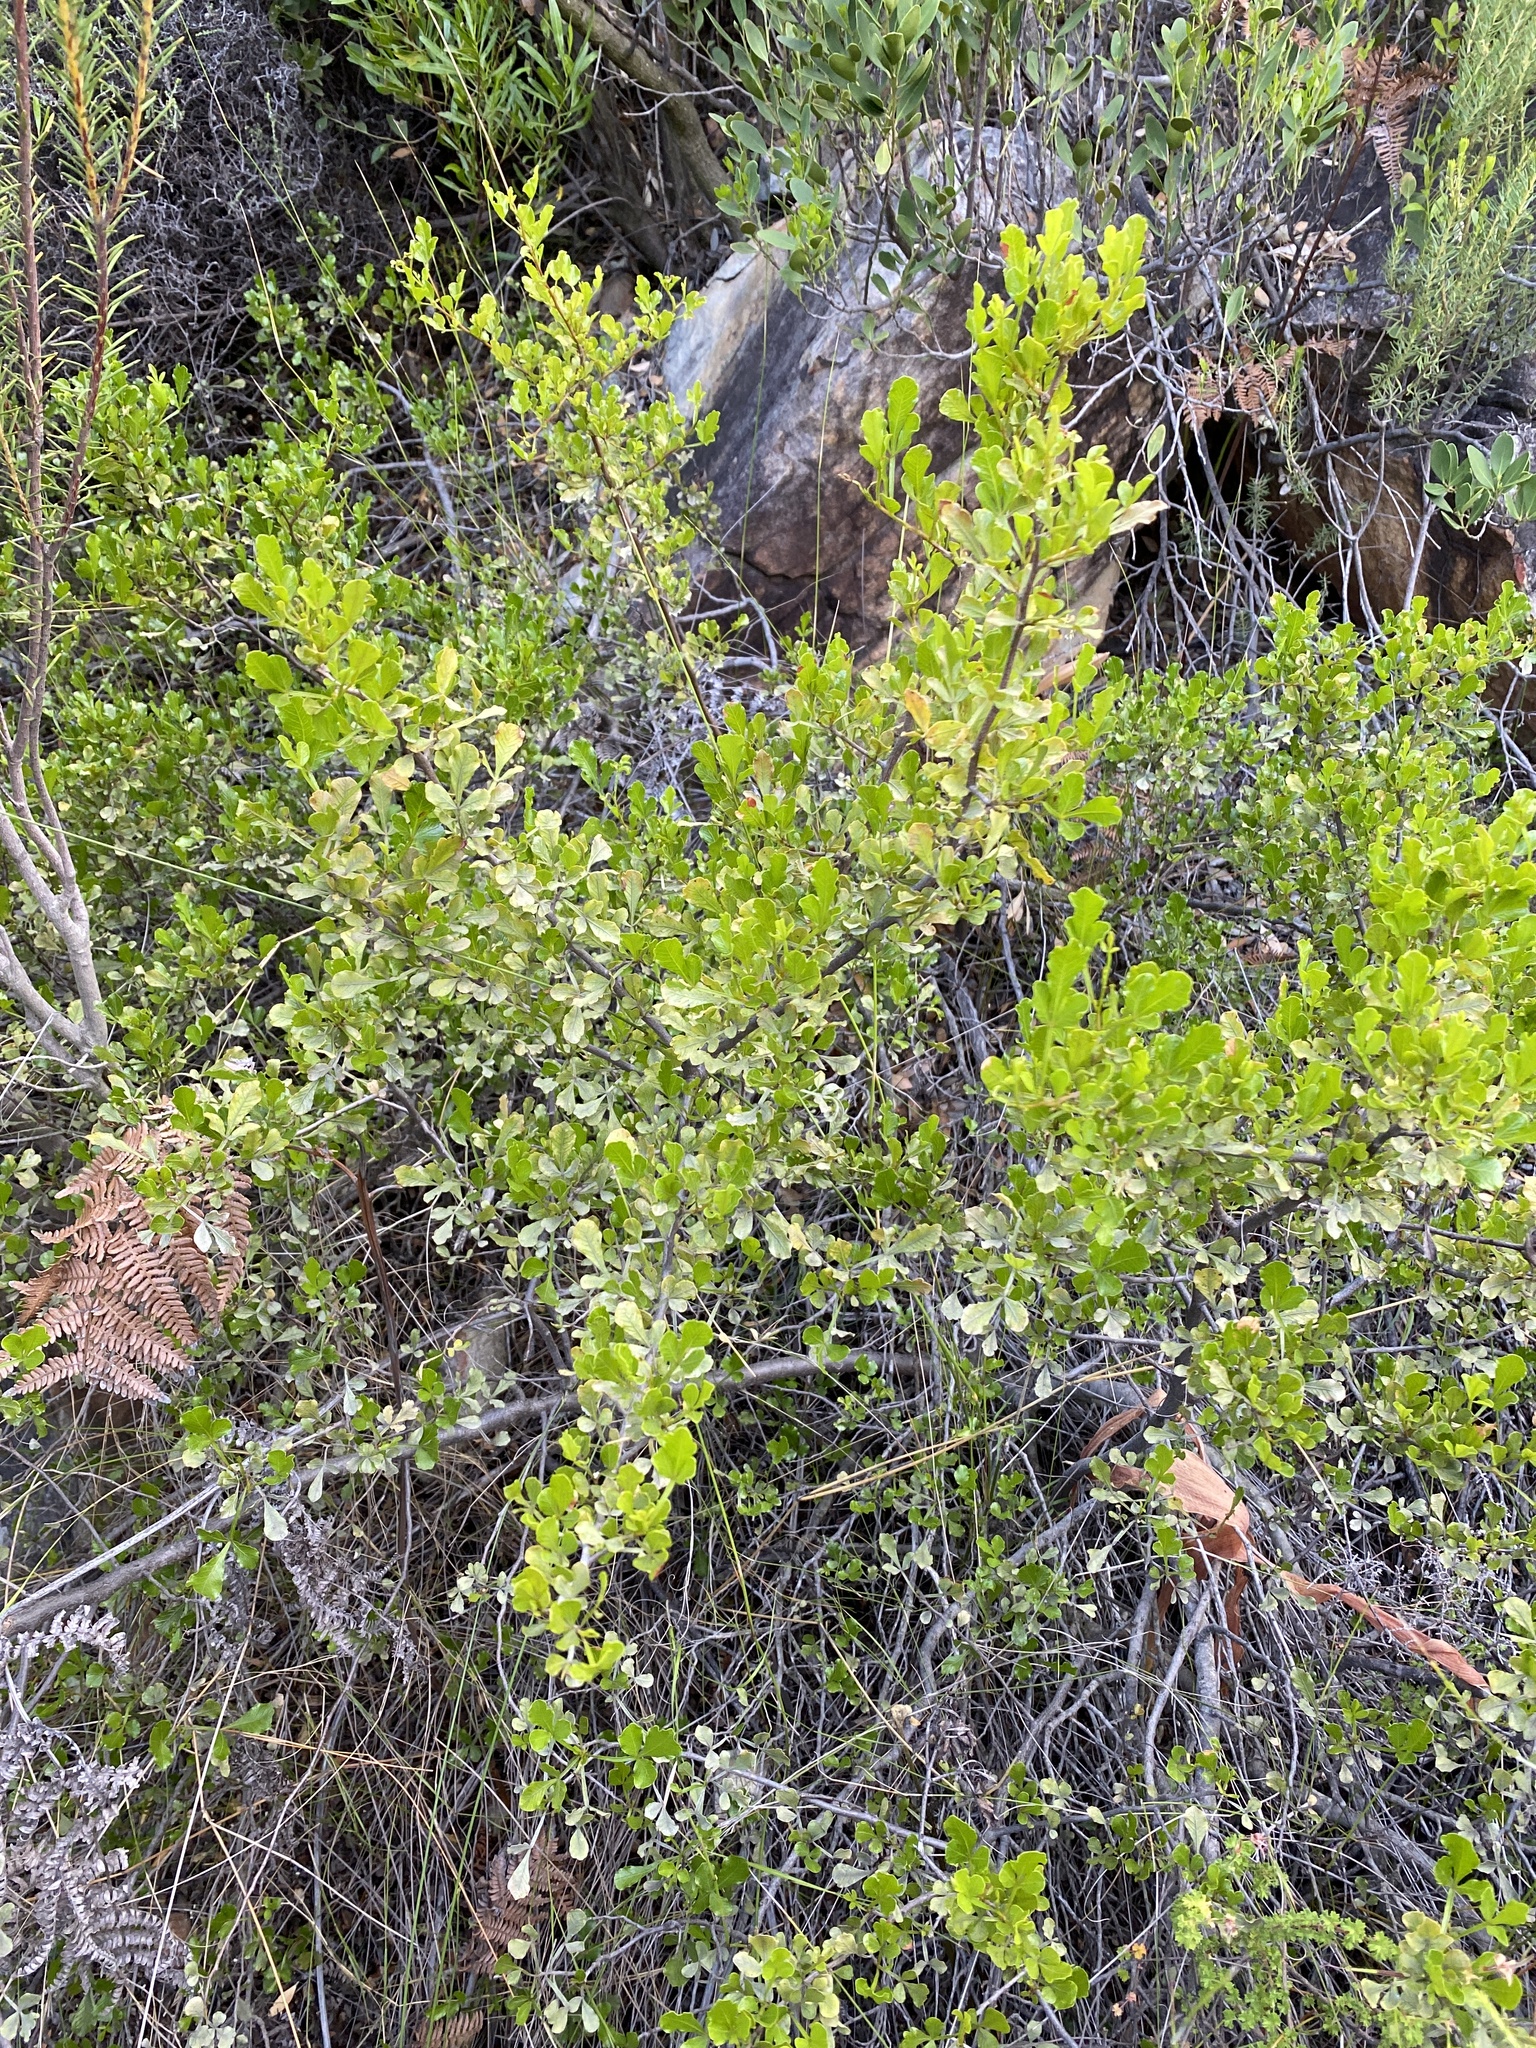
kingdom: Plantae
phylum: Tracheophyta
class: Magnoliopsida
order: Sapindales
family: Anacardiaceae
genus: Searsia
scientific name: Searsia undulata
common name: Namaqua kunibush
